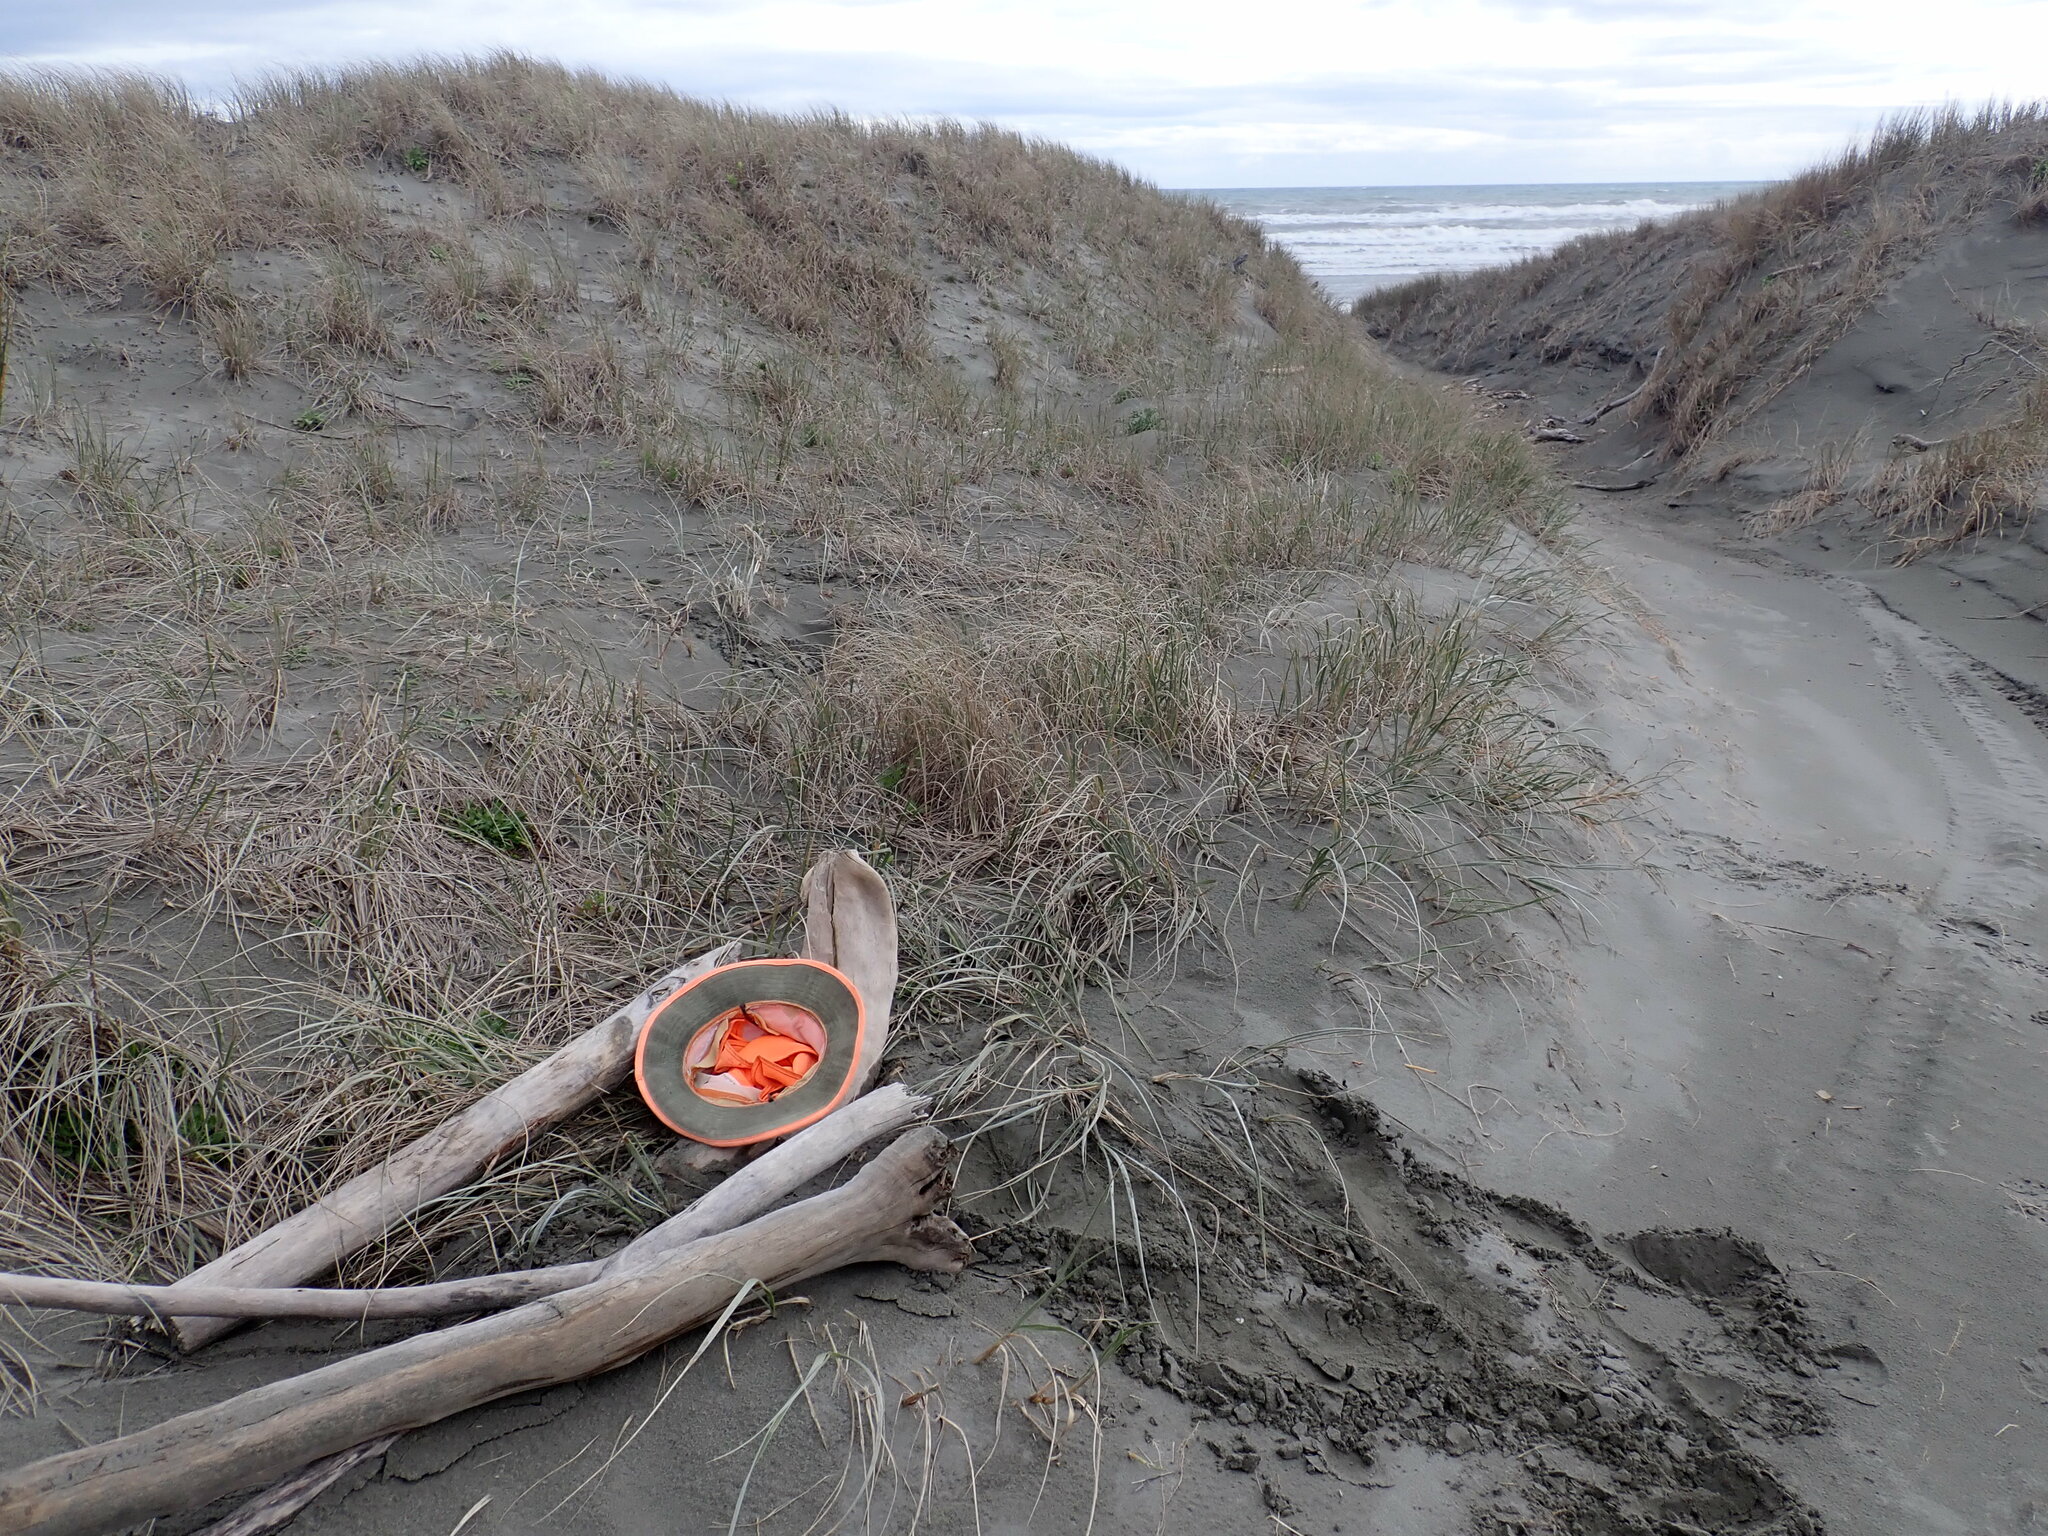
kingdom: Animalia
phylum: Arthropoda
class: Insecta
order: Blattodea
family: Blattidae
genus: Maoriblatta
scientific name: Maoriblatta novaeseelandiae
